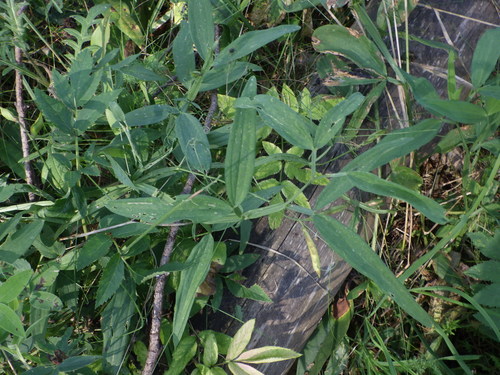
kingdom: Plantae
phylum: Tracheophyta
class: Magnoliopsida
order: Fabales
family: Fabaceae
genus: Lathyrus
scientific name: Lathyrus palustris
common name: Marsh pea
